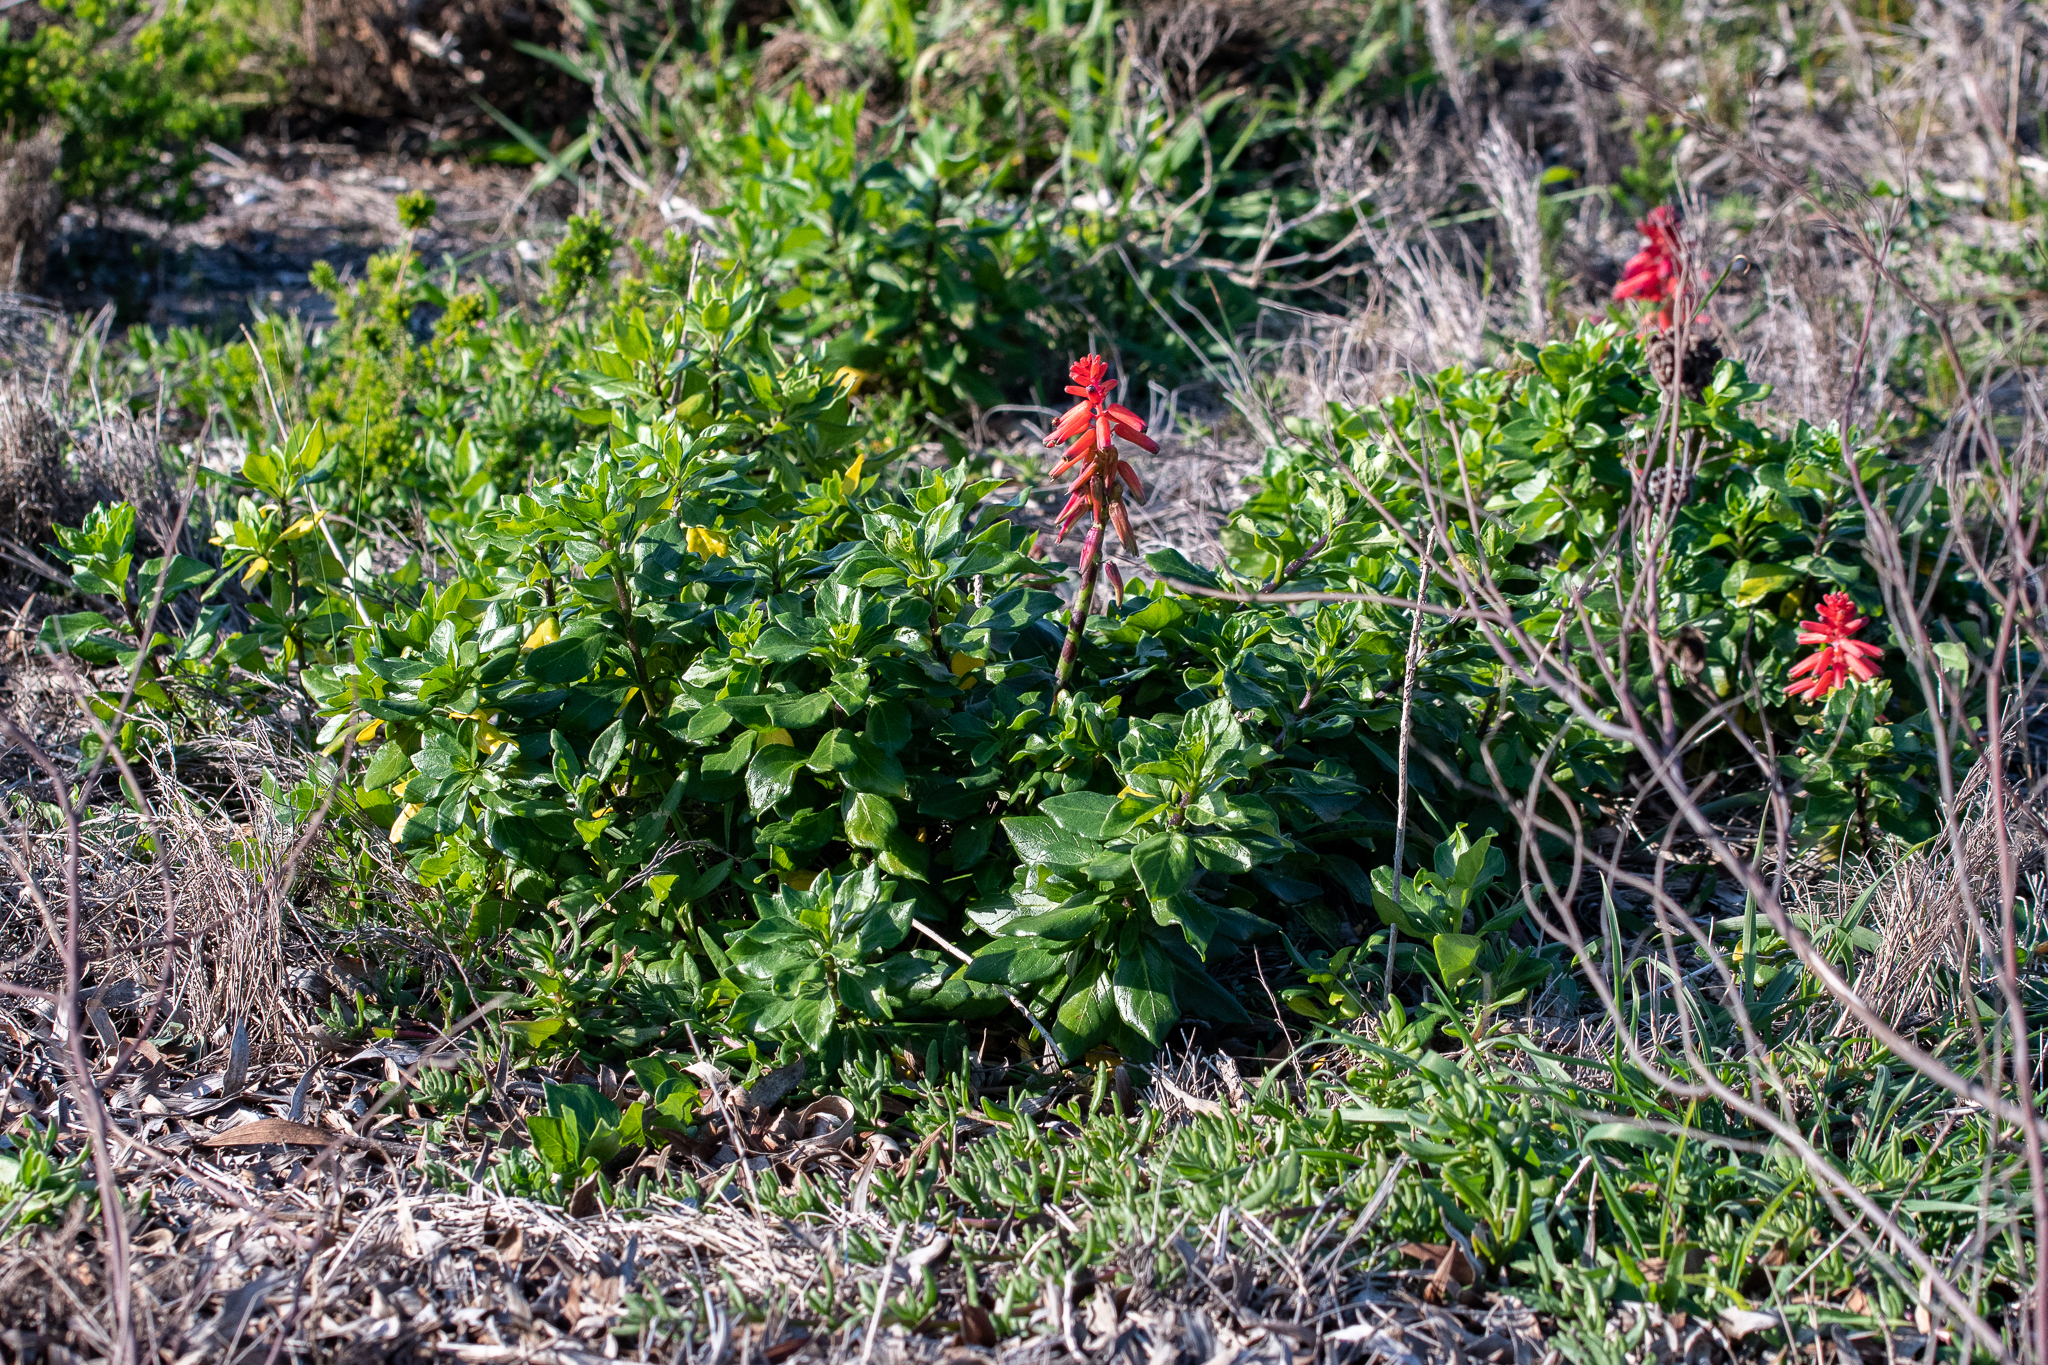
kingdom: Plantae
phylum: Tracheophyta
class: Liliopsida
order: Asparagales
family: Asparagaceae
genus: Lachenalia
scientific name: Lachenalia bulbifera
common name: Red lachenalia
